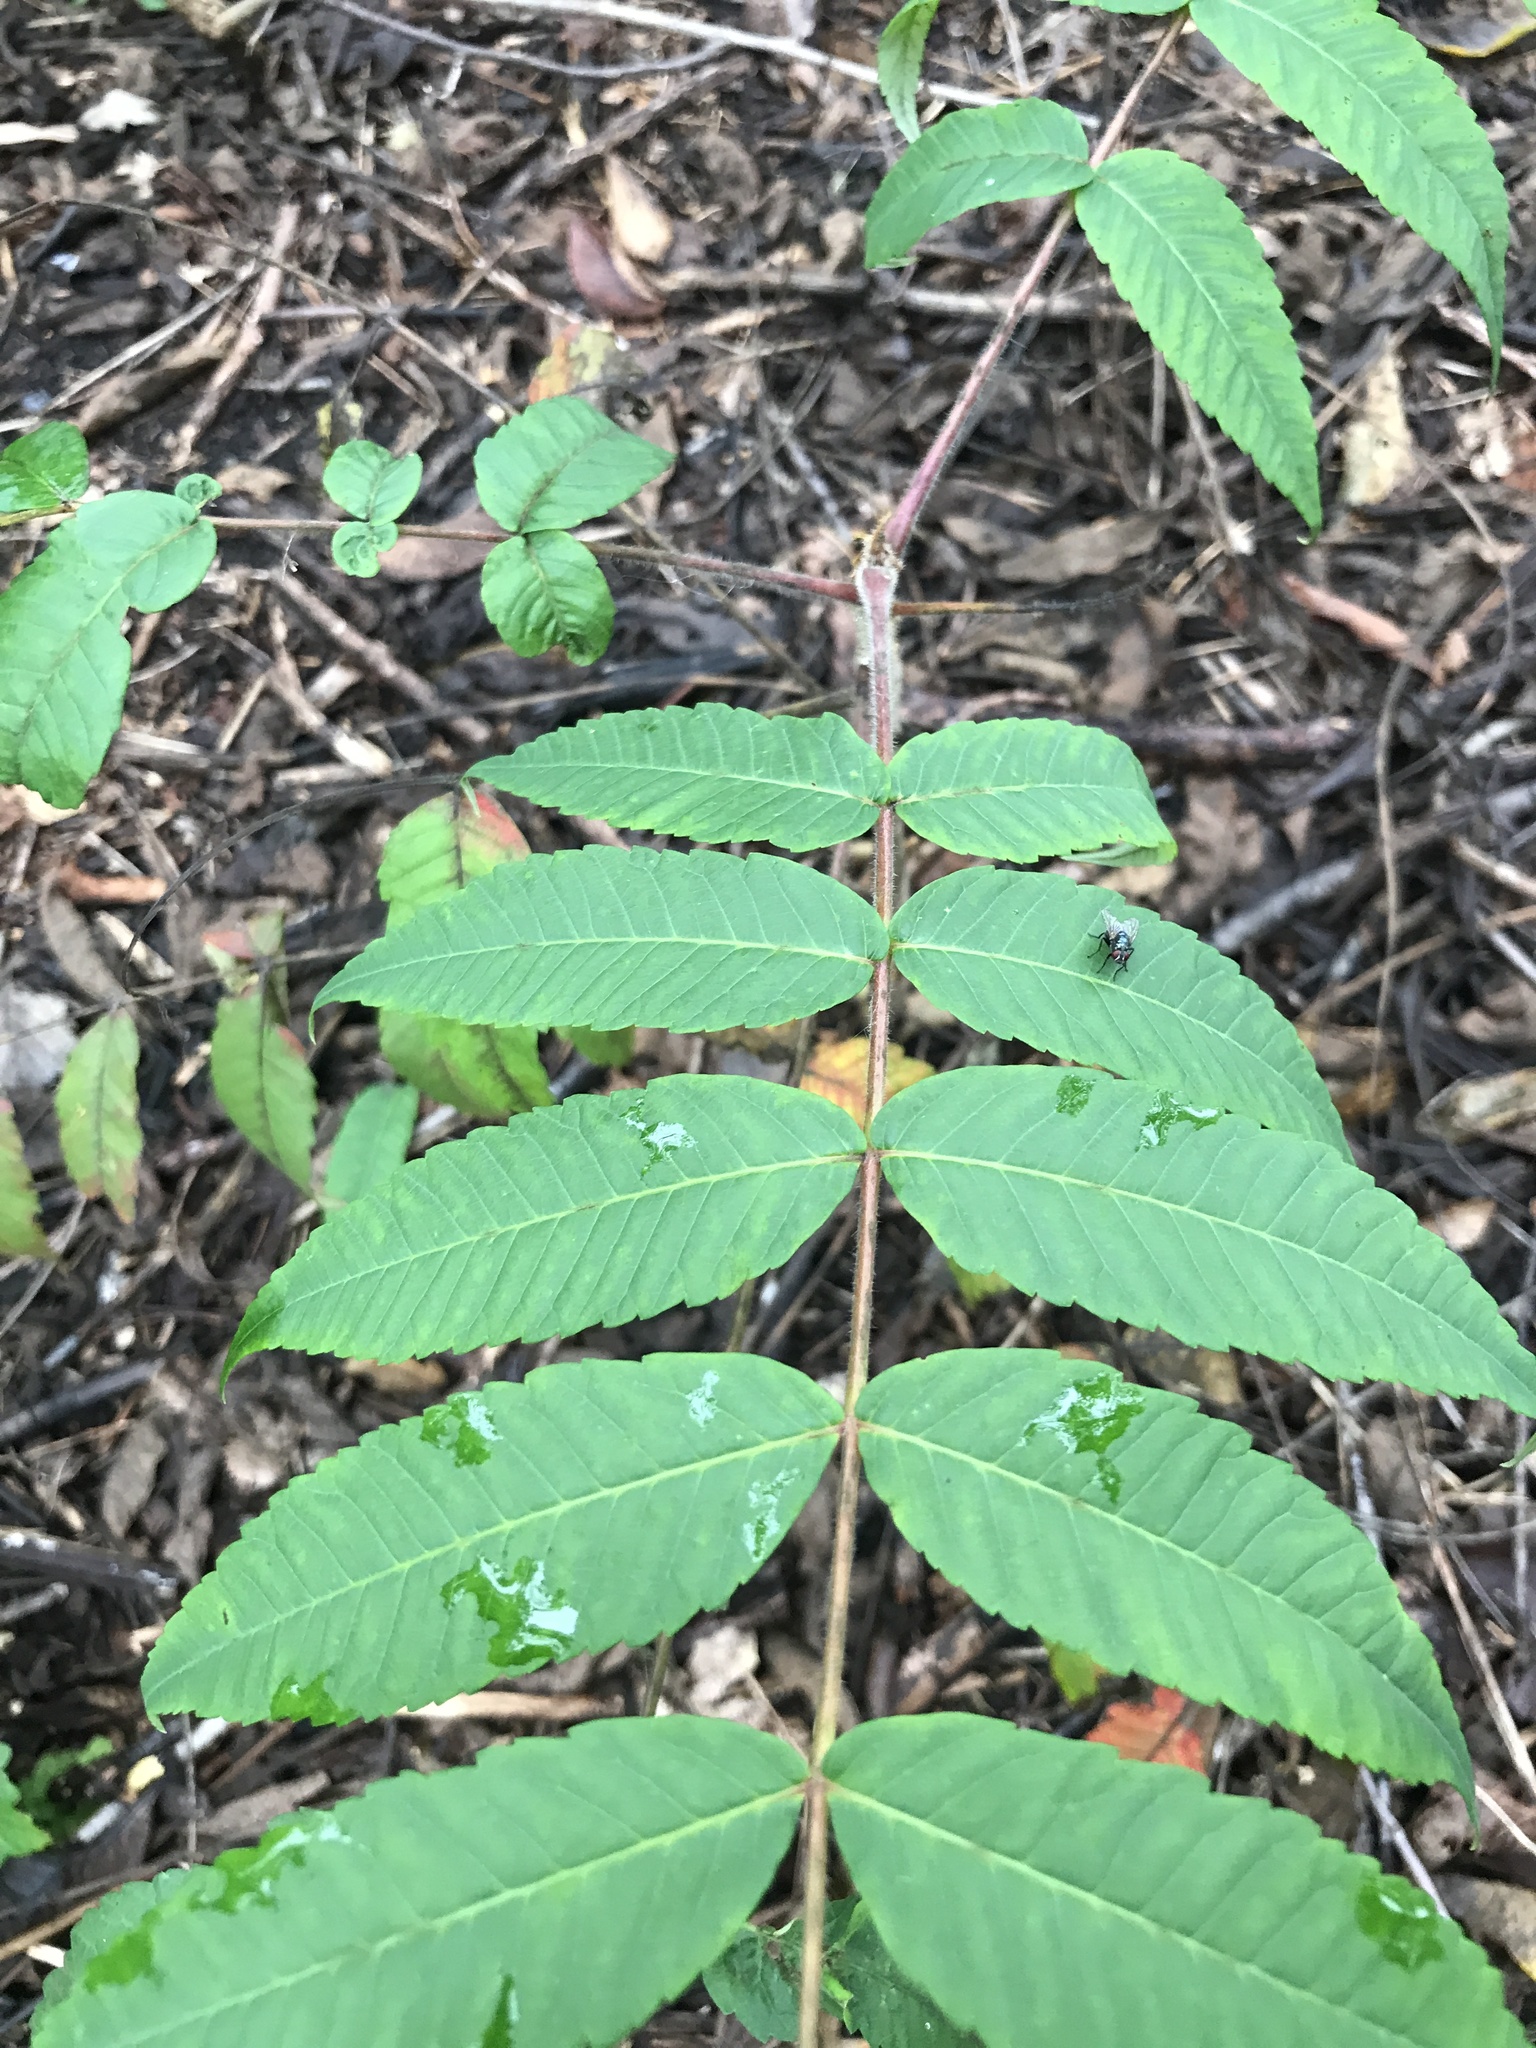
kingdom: Plantae
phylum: Tracheophyta
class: Magnoliopsida
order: Sapindales
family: Anacardiaceae
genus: Rhus
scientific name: Rhus typhina
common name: Staghorn sumac
